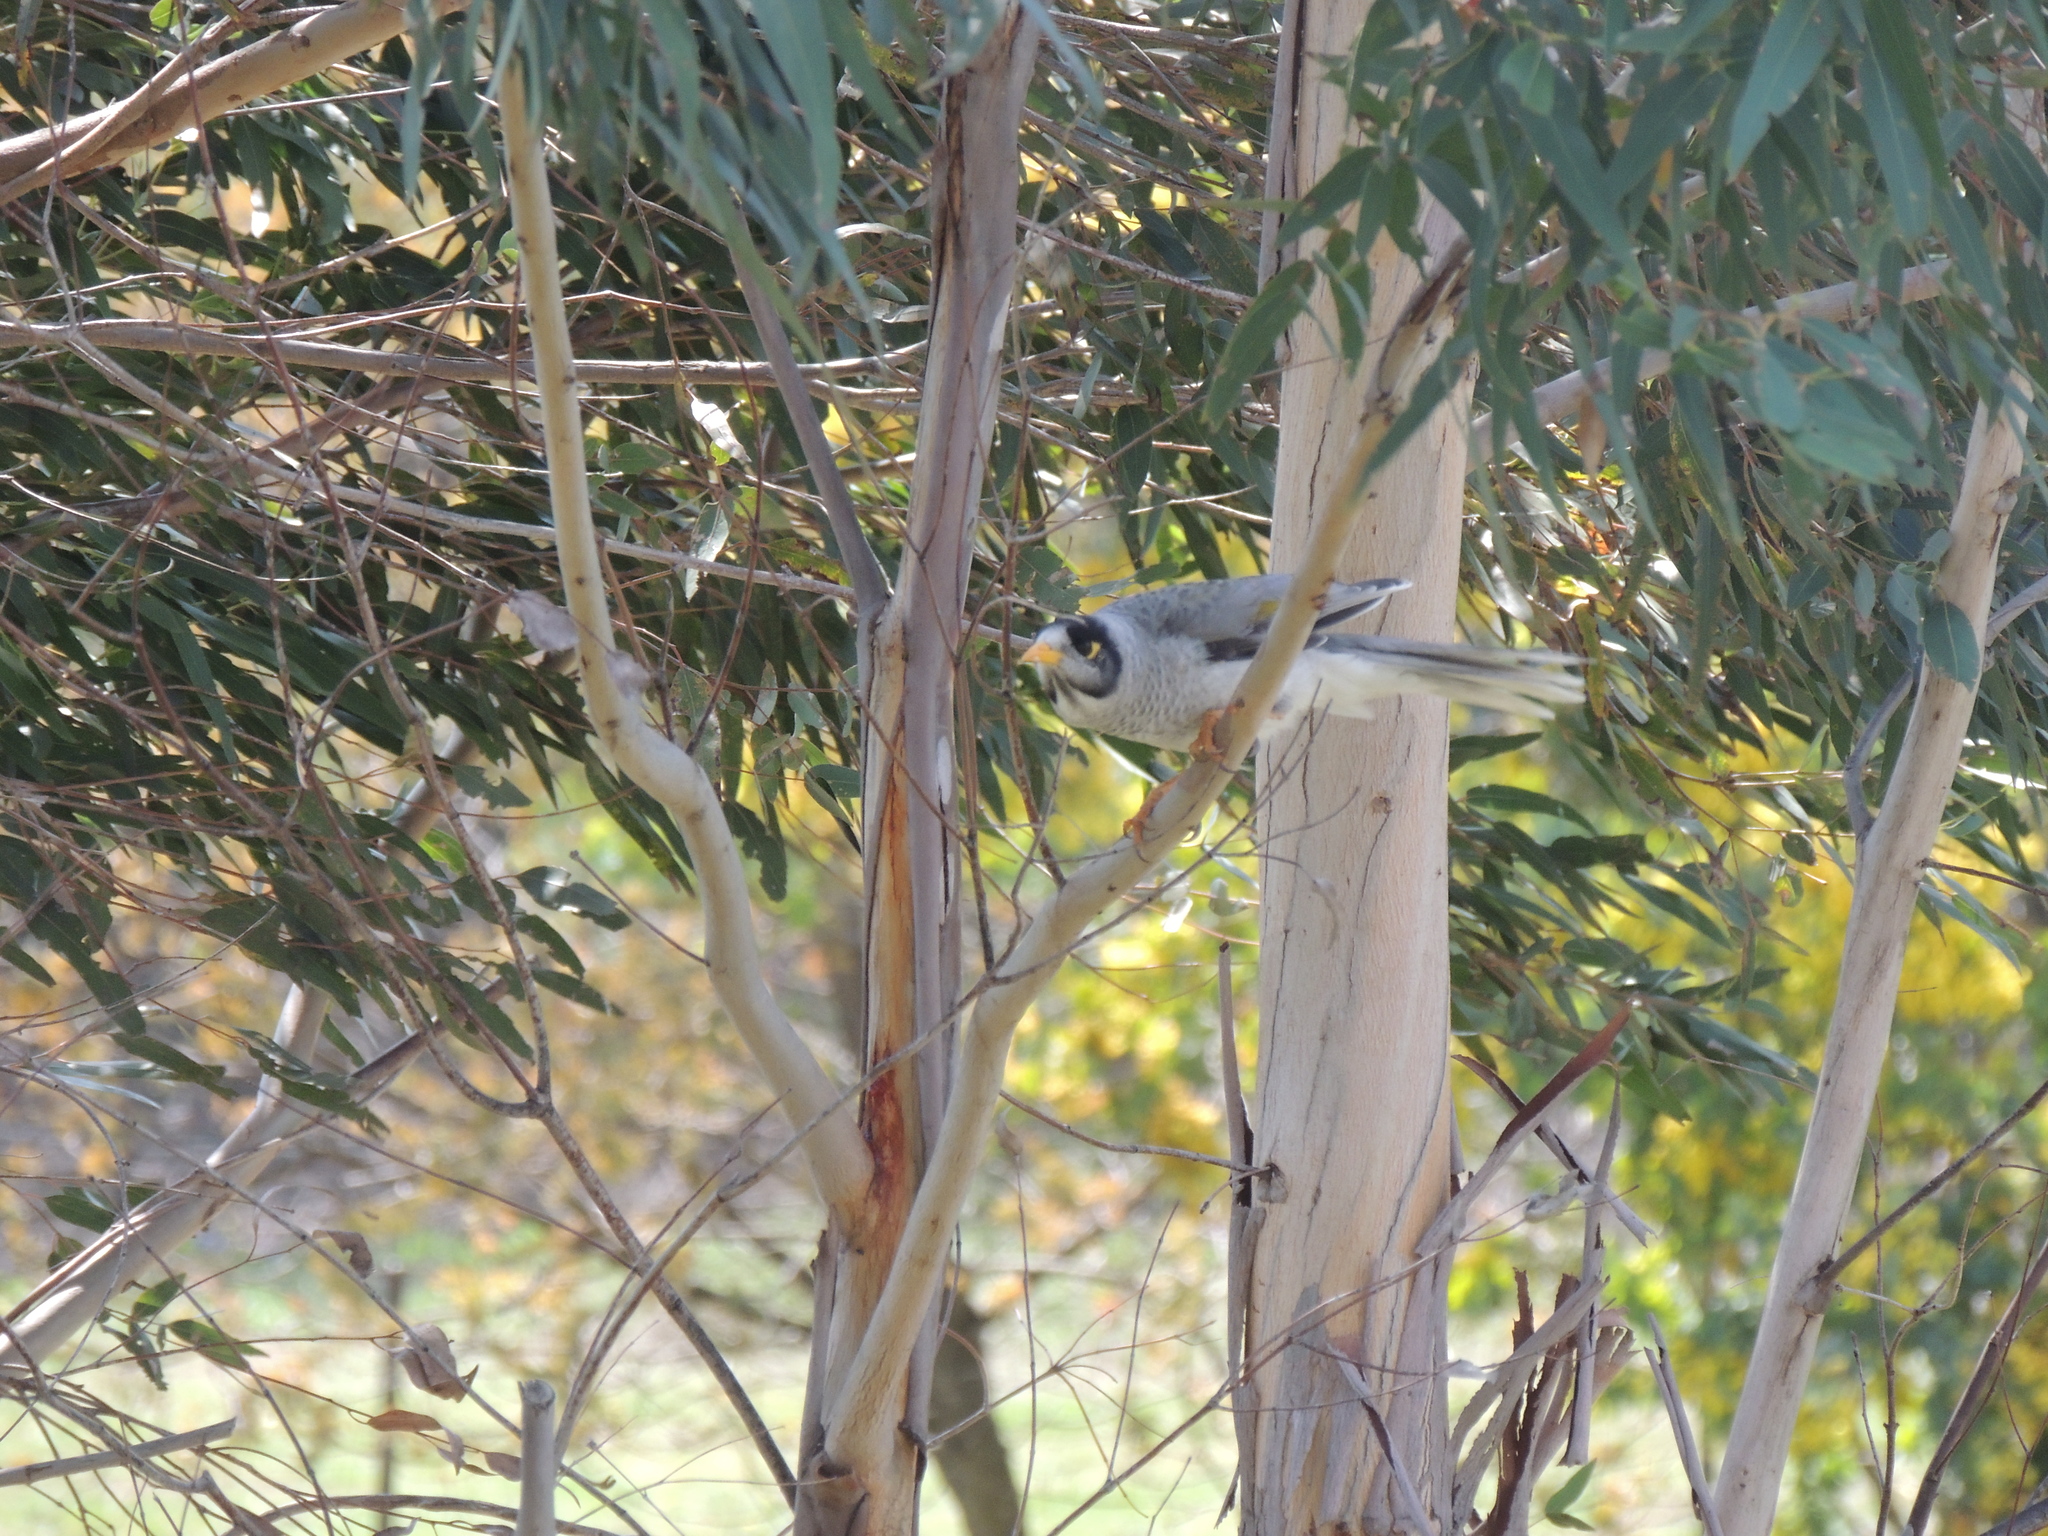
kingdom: Animalia
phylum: Chordata
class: Aves
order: Passeriformes
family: Meliphagidae
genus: Manorina
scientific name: Manorina melanocephala
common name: Noisy miner
